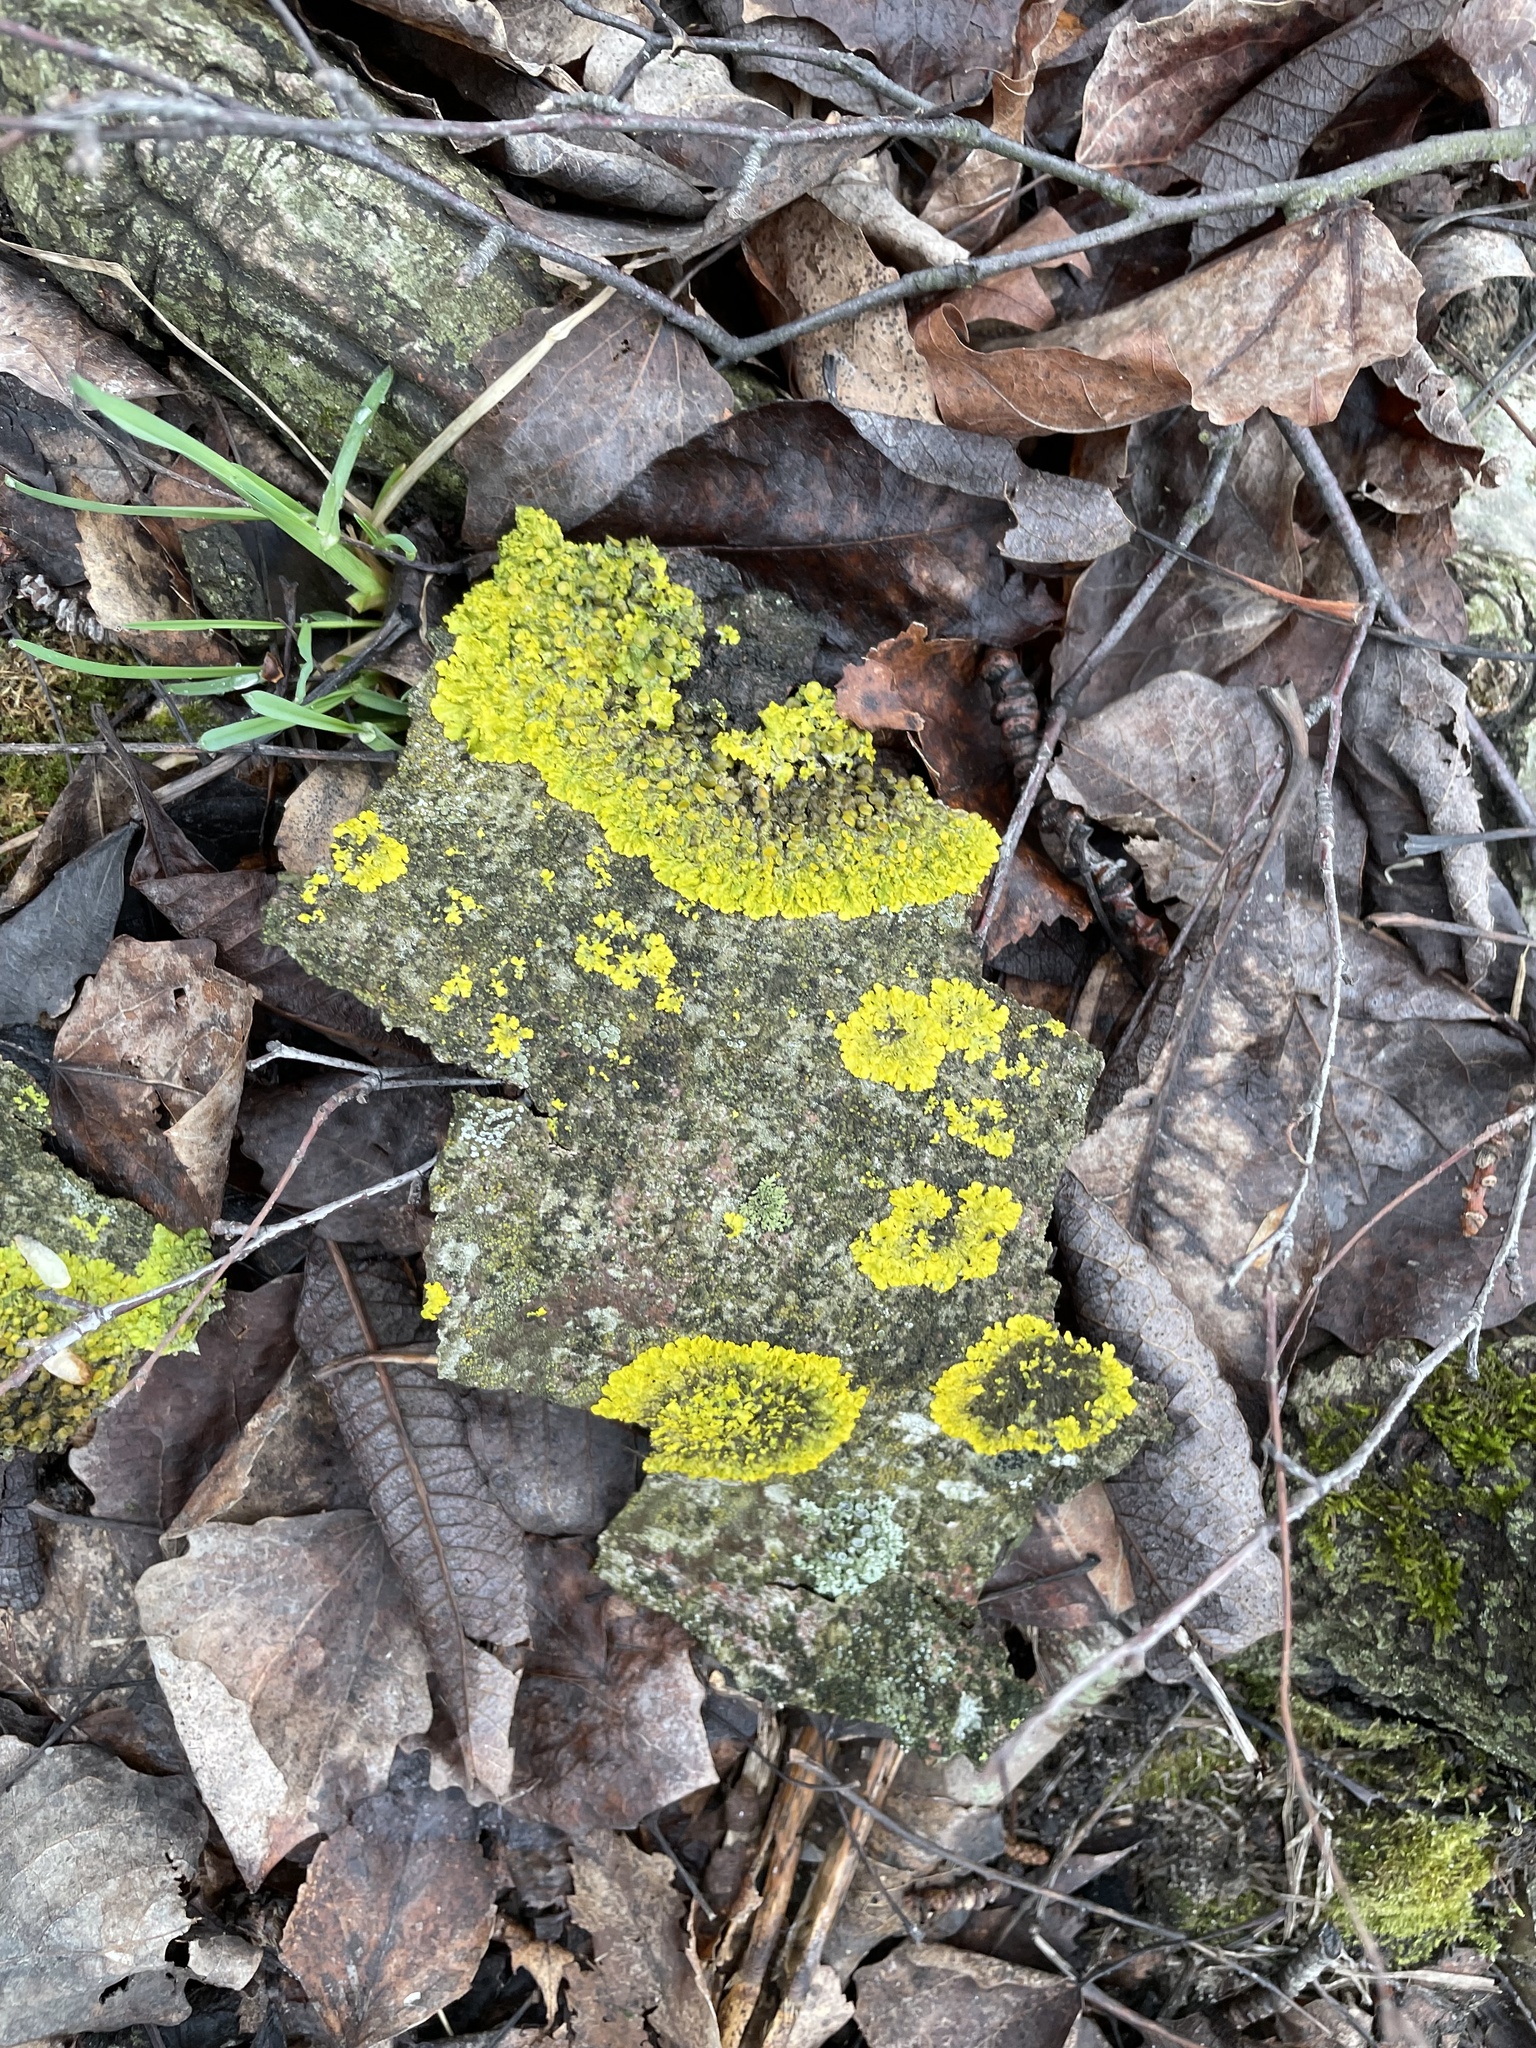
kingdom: Fungi
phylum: Ascomycota
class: Lecanoromycetes
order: Teloschistales
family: Teloschistaceae
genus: Xanthoria
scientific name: Xanthoria parietina
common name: Common orange lichen
